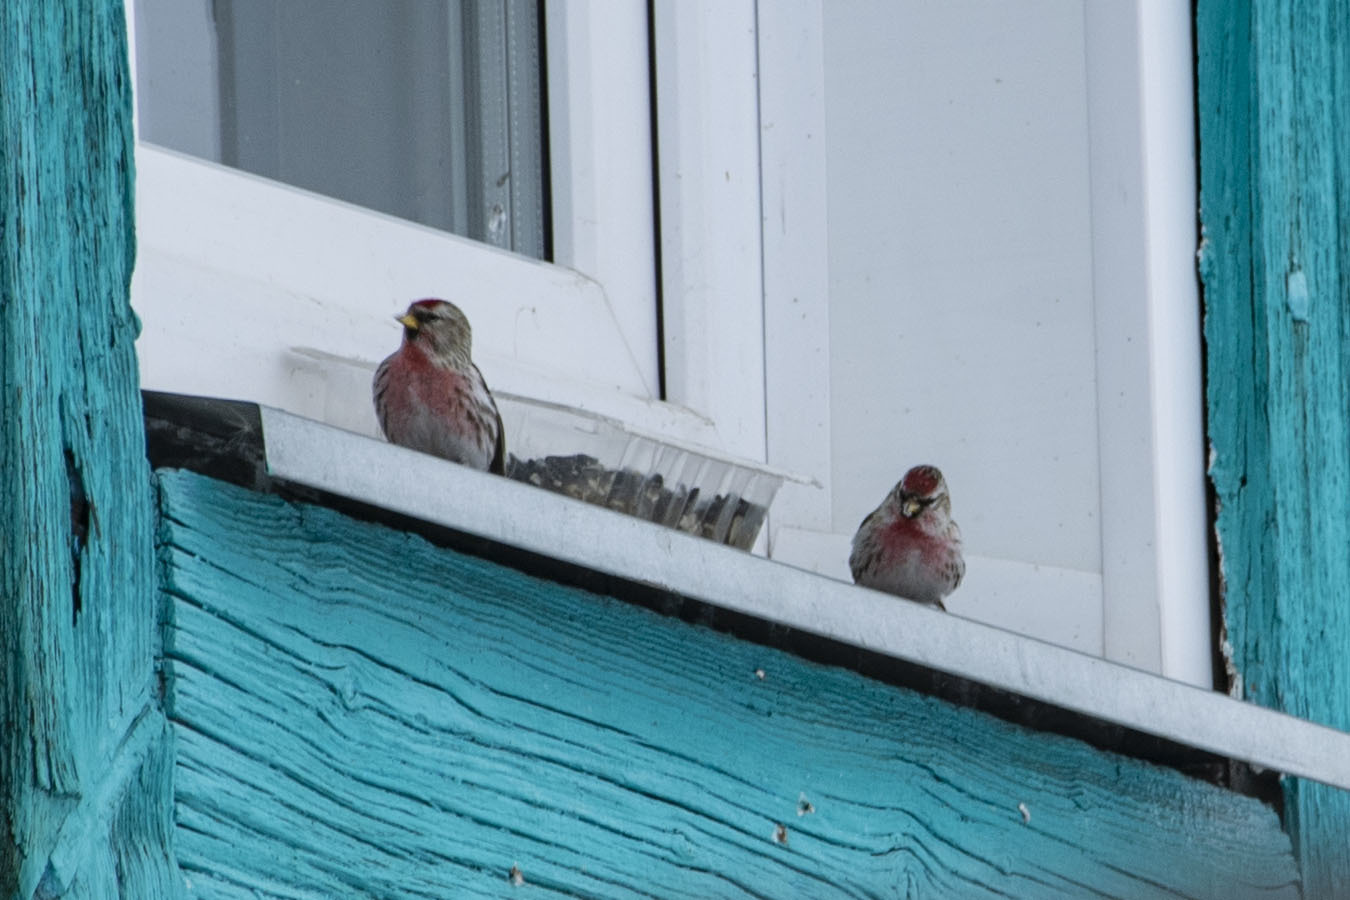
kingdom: Animalia
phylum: Chordata
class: Aves
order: Passeriformes
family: Fringillidae
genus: Acanthis
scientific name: Acanthis flammea
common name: Common redpoll
